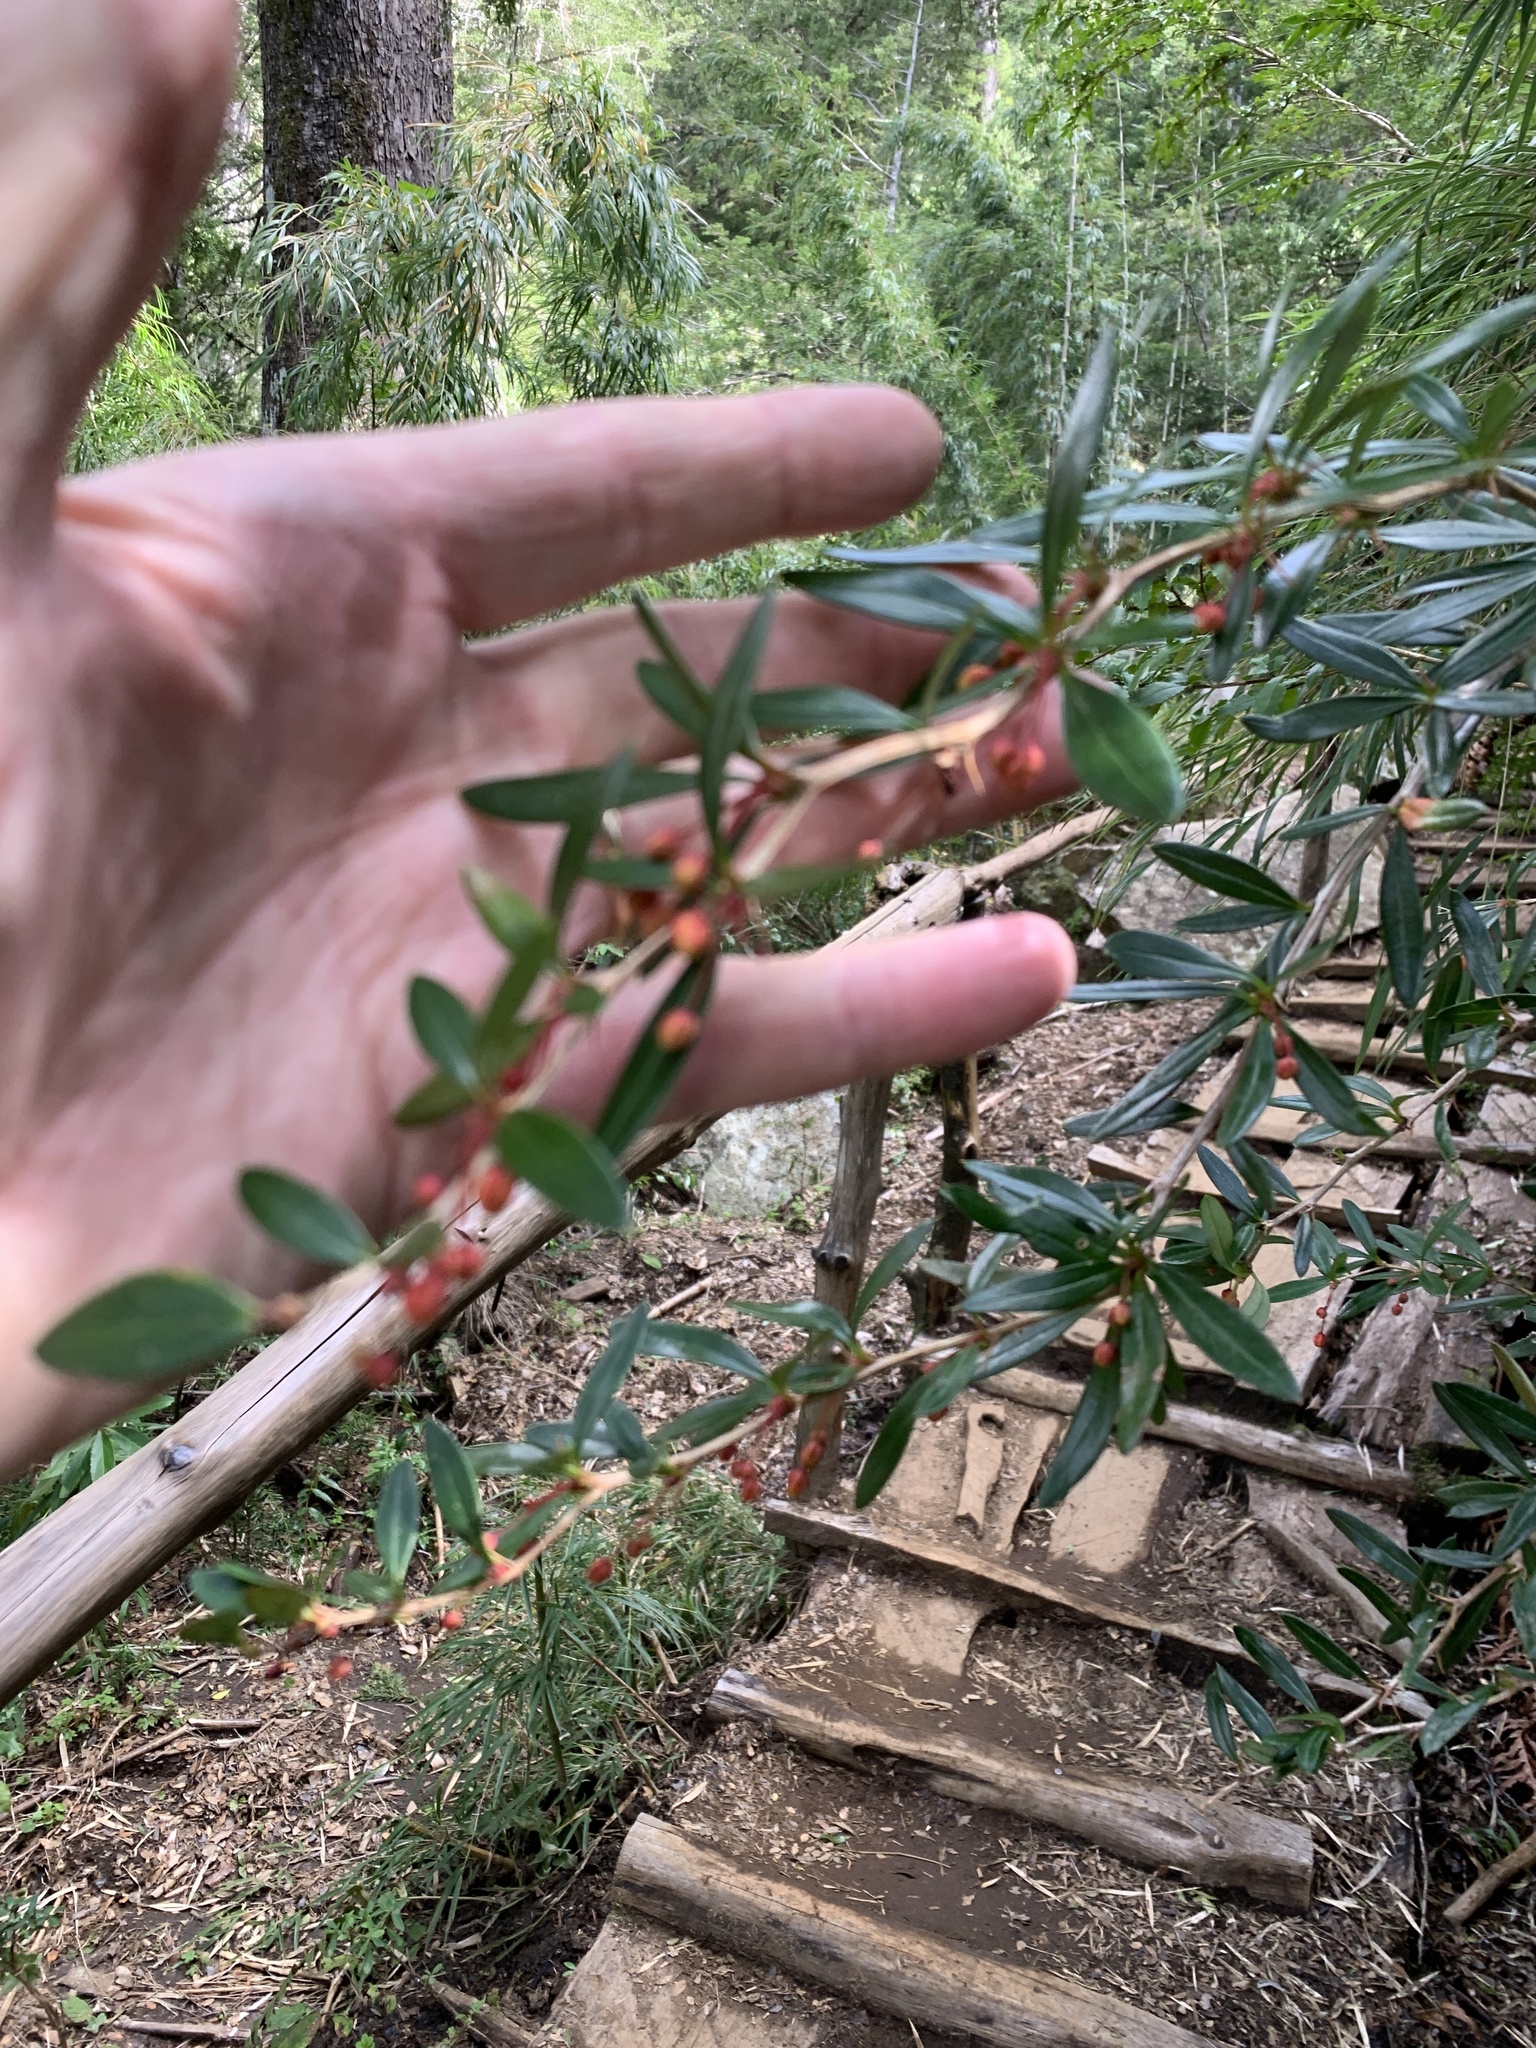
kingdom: Plantae
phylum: Tracheophyta
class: Magnoliopsida
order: Ranunculales
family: Berberidaceae
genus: Berberis
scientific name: Berberis trigona
